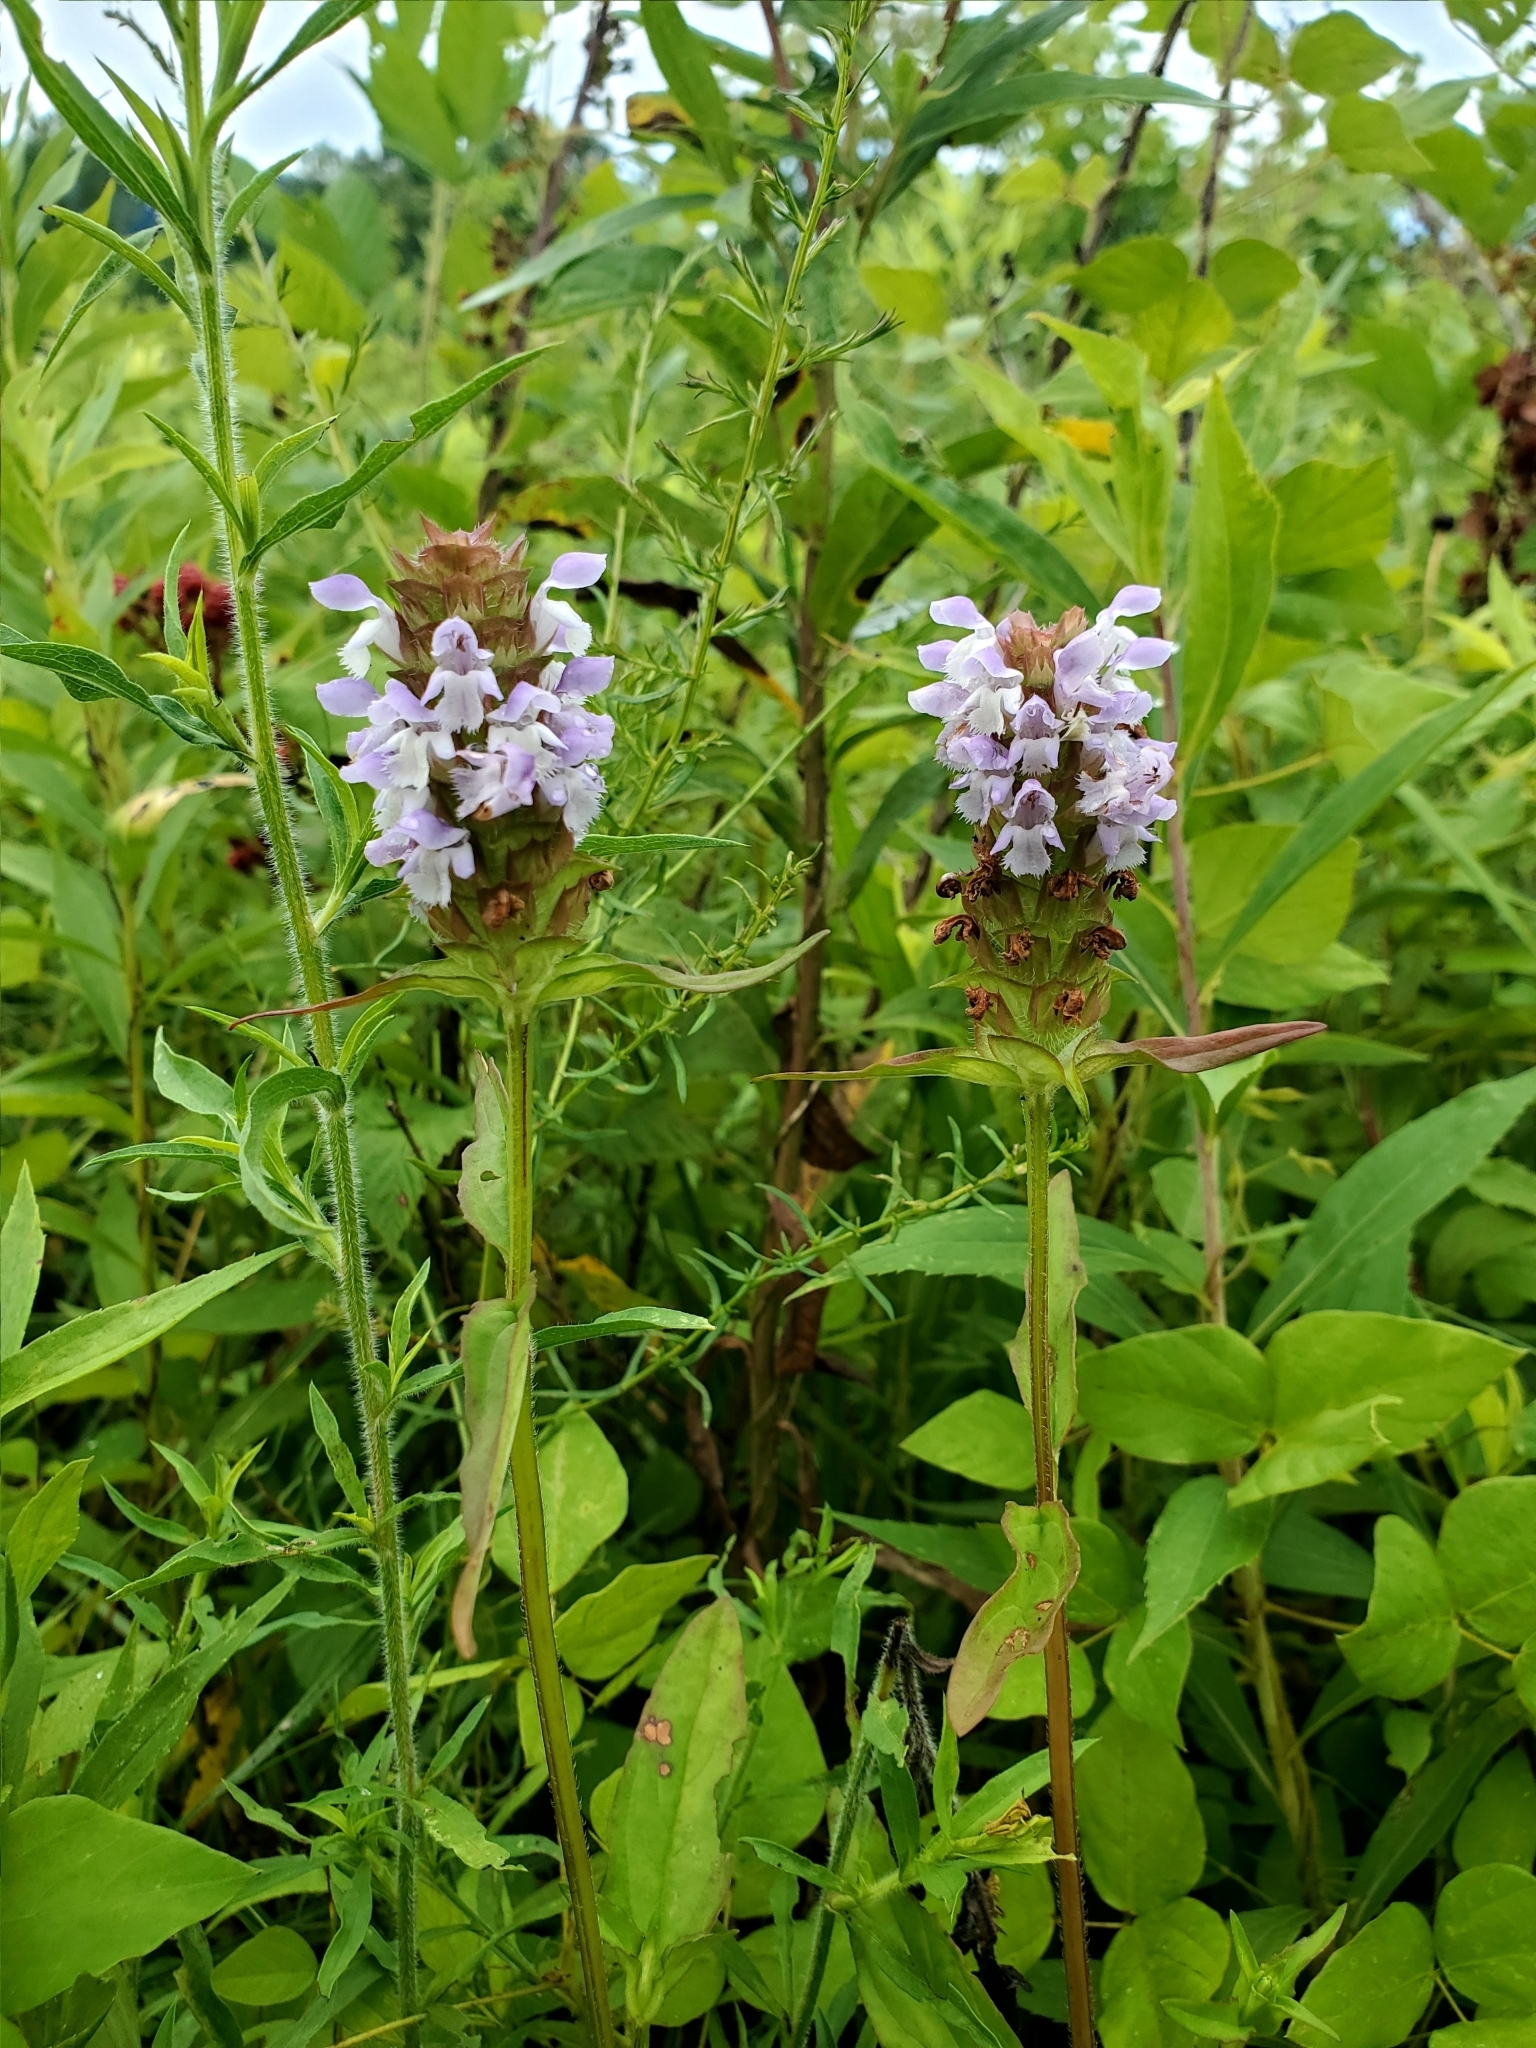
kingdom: Plantae
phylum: Tracheophyta
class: Magnoliopsida
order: Lamiales
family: Lamiaceae
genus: Prunella
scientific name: Prunella vulgaris
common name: Heal-all
